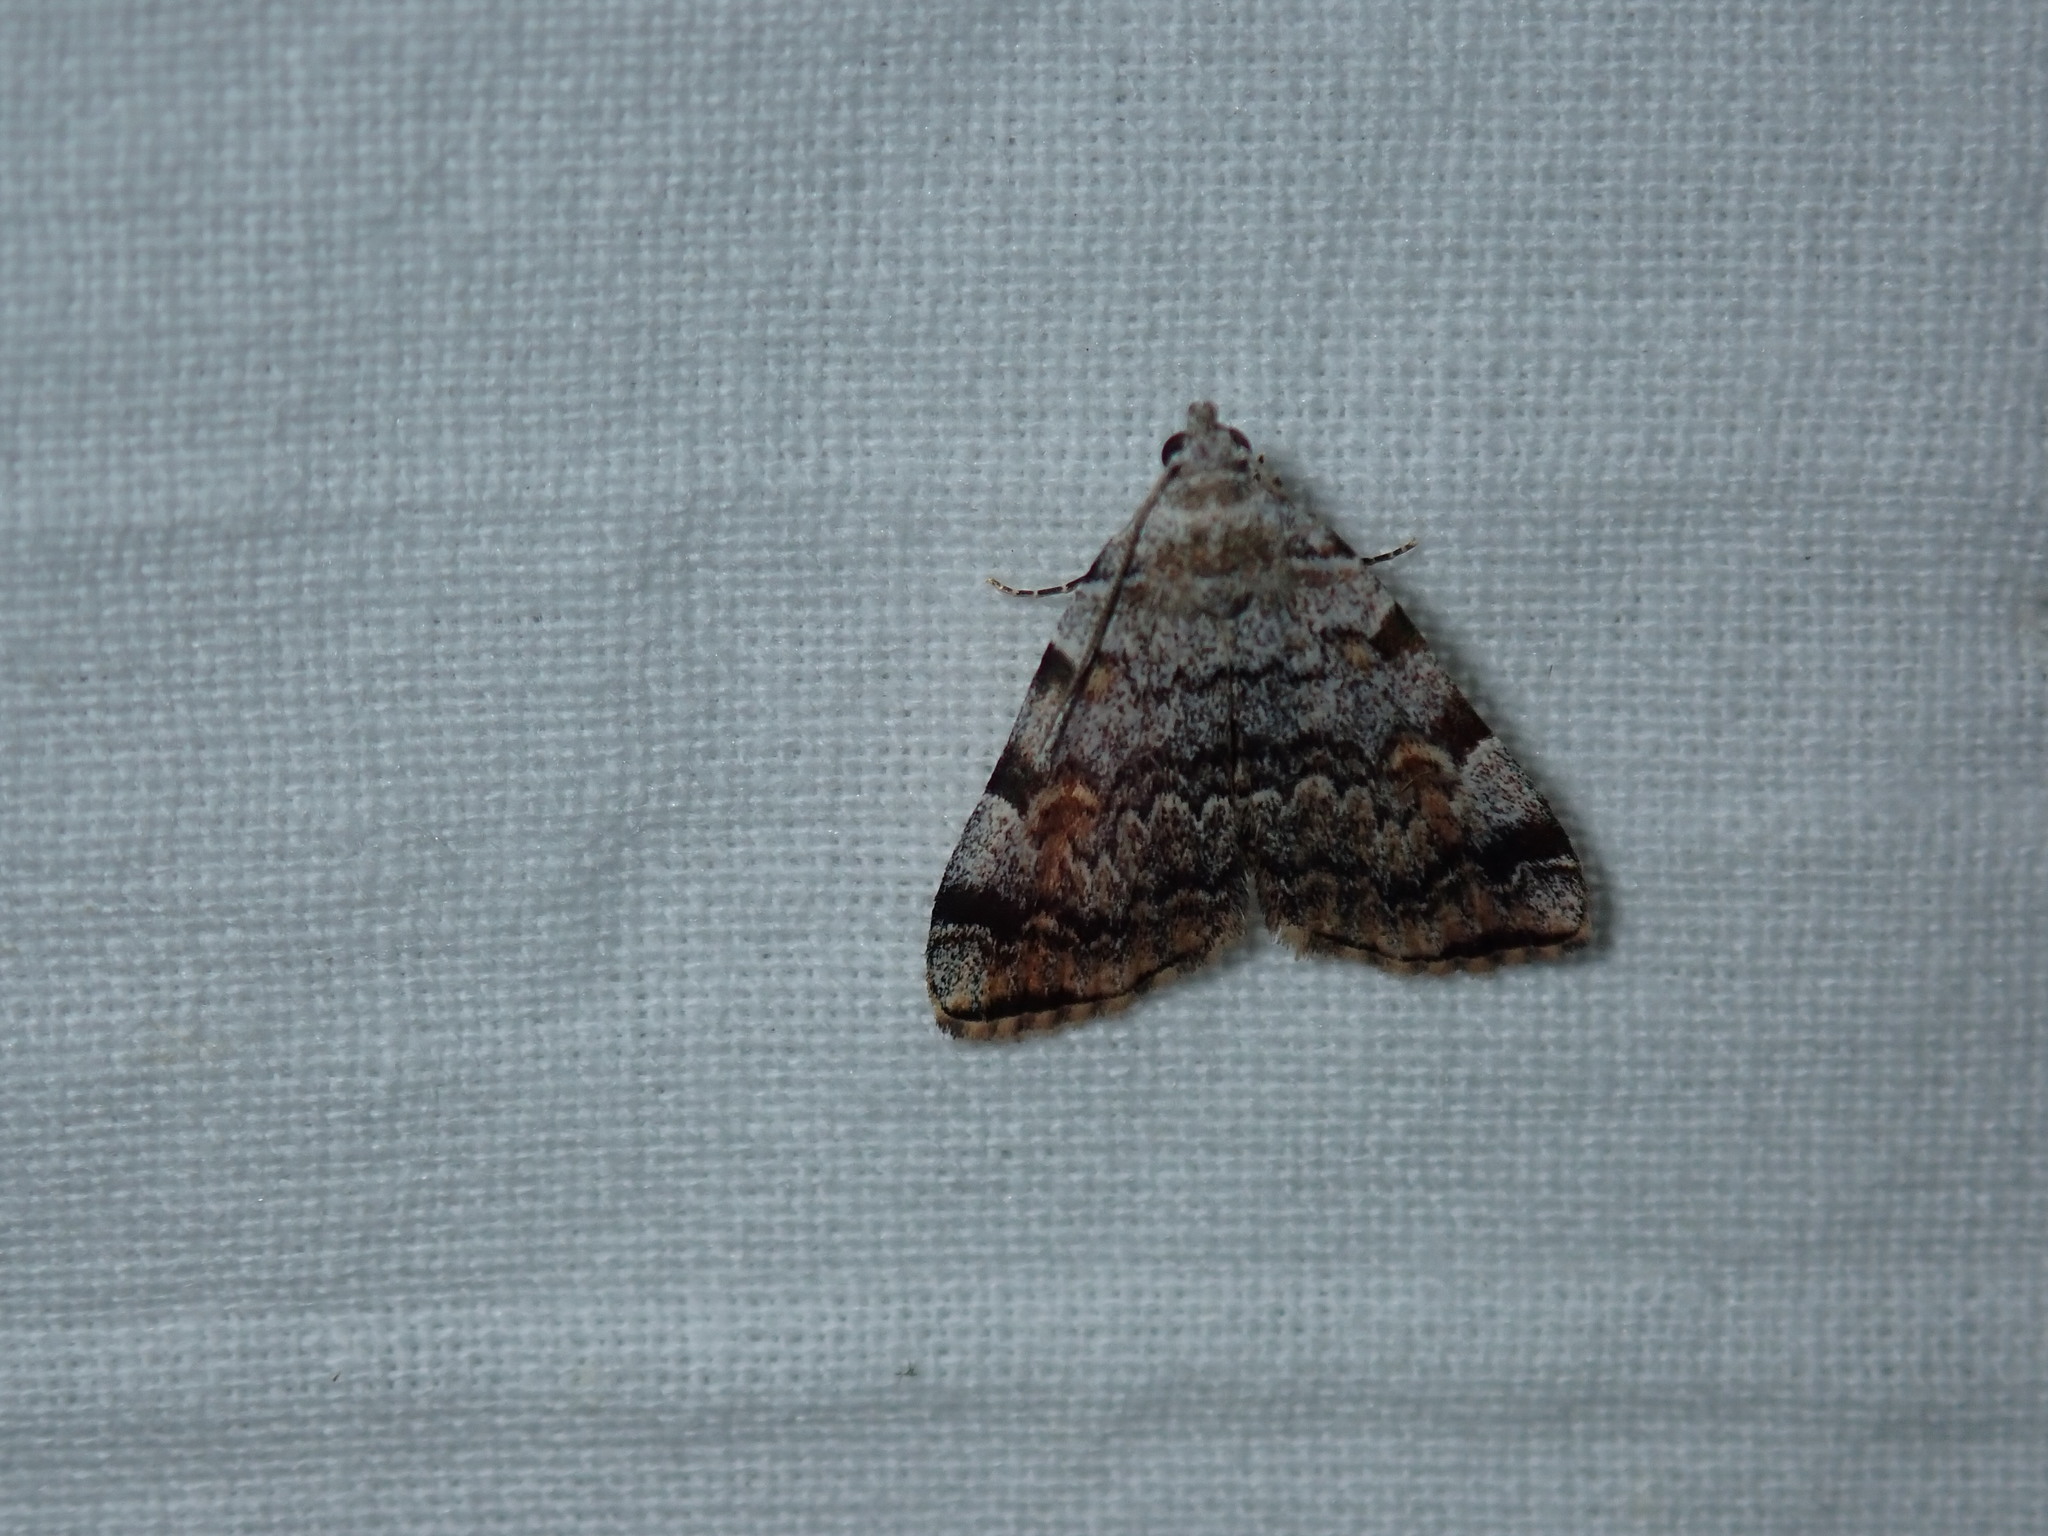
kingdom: Animalia
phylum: Arthropoda
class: Insecta
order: Lepidoptera
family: Erebidae
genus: Idia
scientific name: Idia americalis
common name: American idia moth
